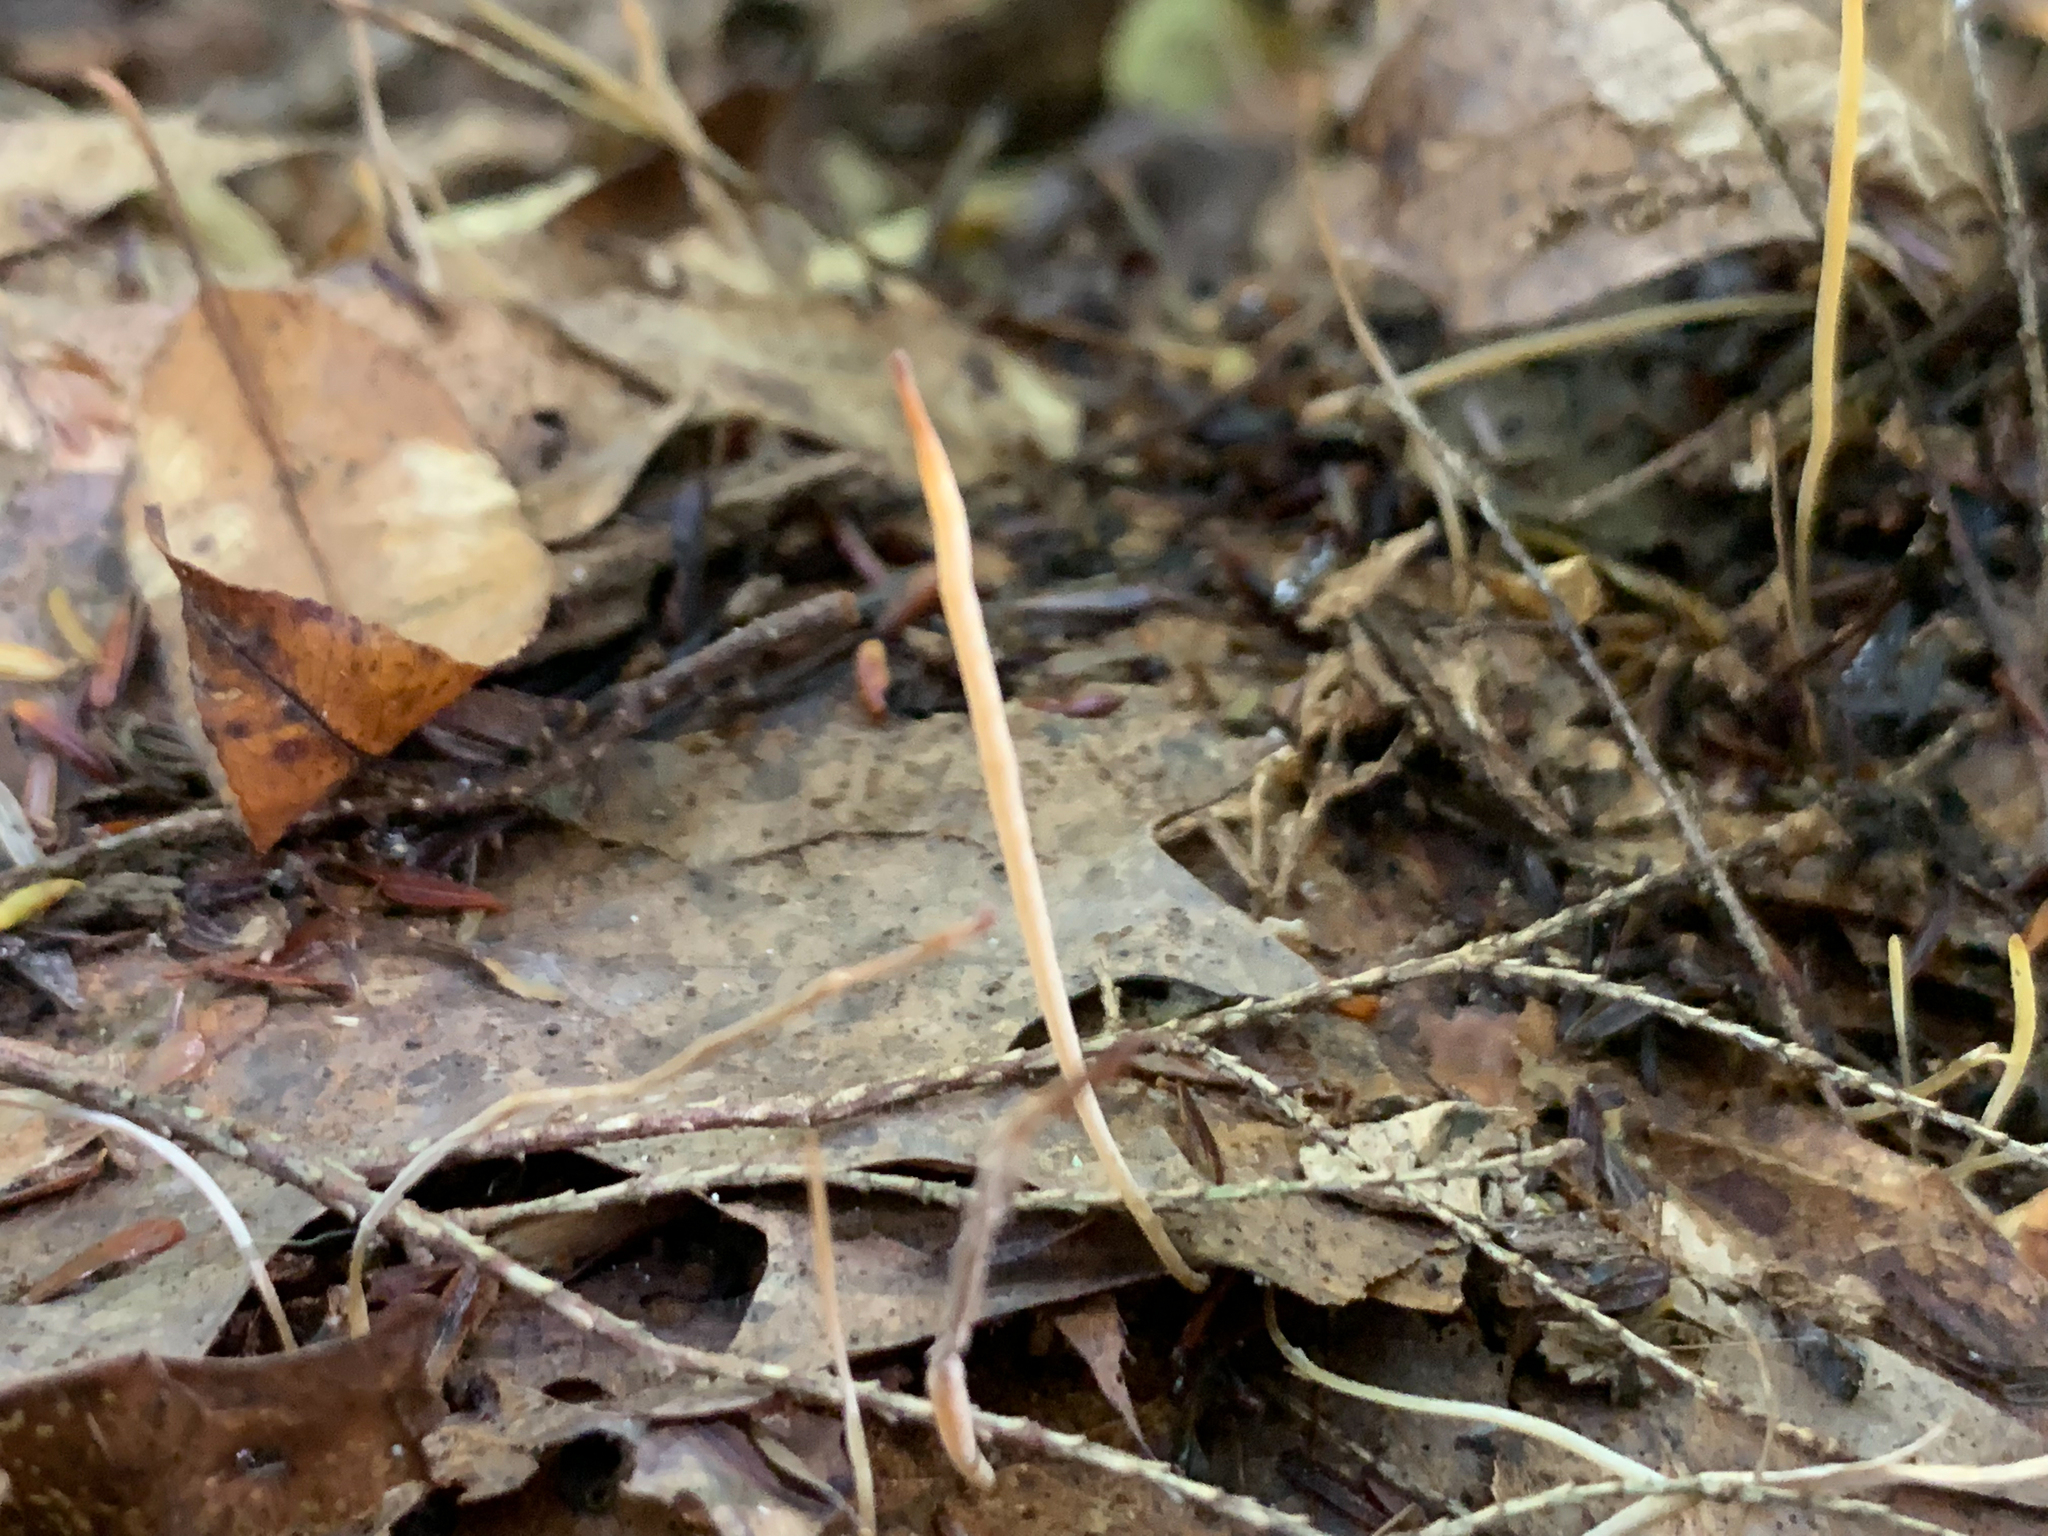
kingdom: Fungi
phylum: Basidiomycota
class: Agaricomycetes
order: Agaricales
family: Typhulaceae
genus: Typhula
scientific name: Typhula juncea
